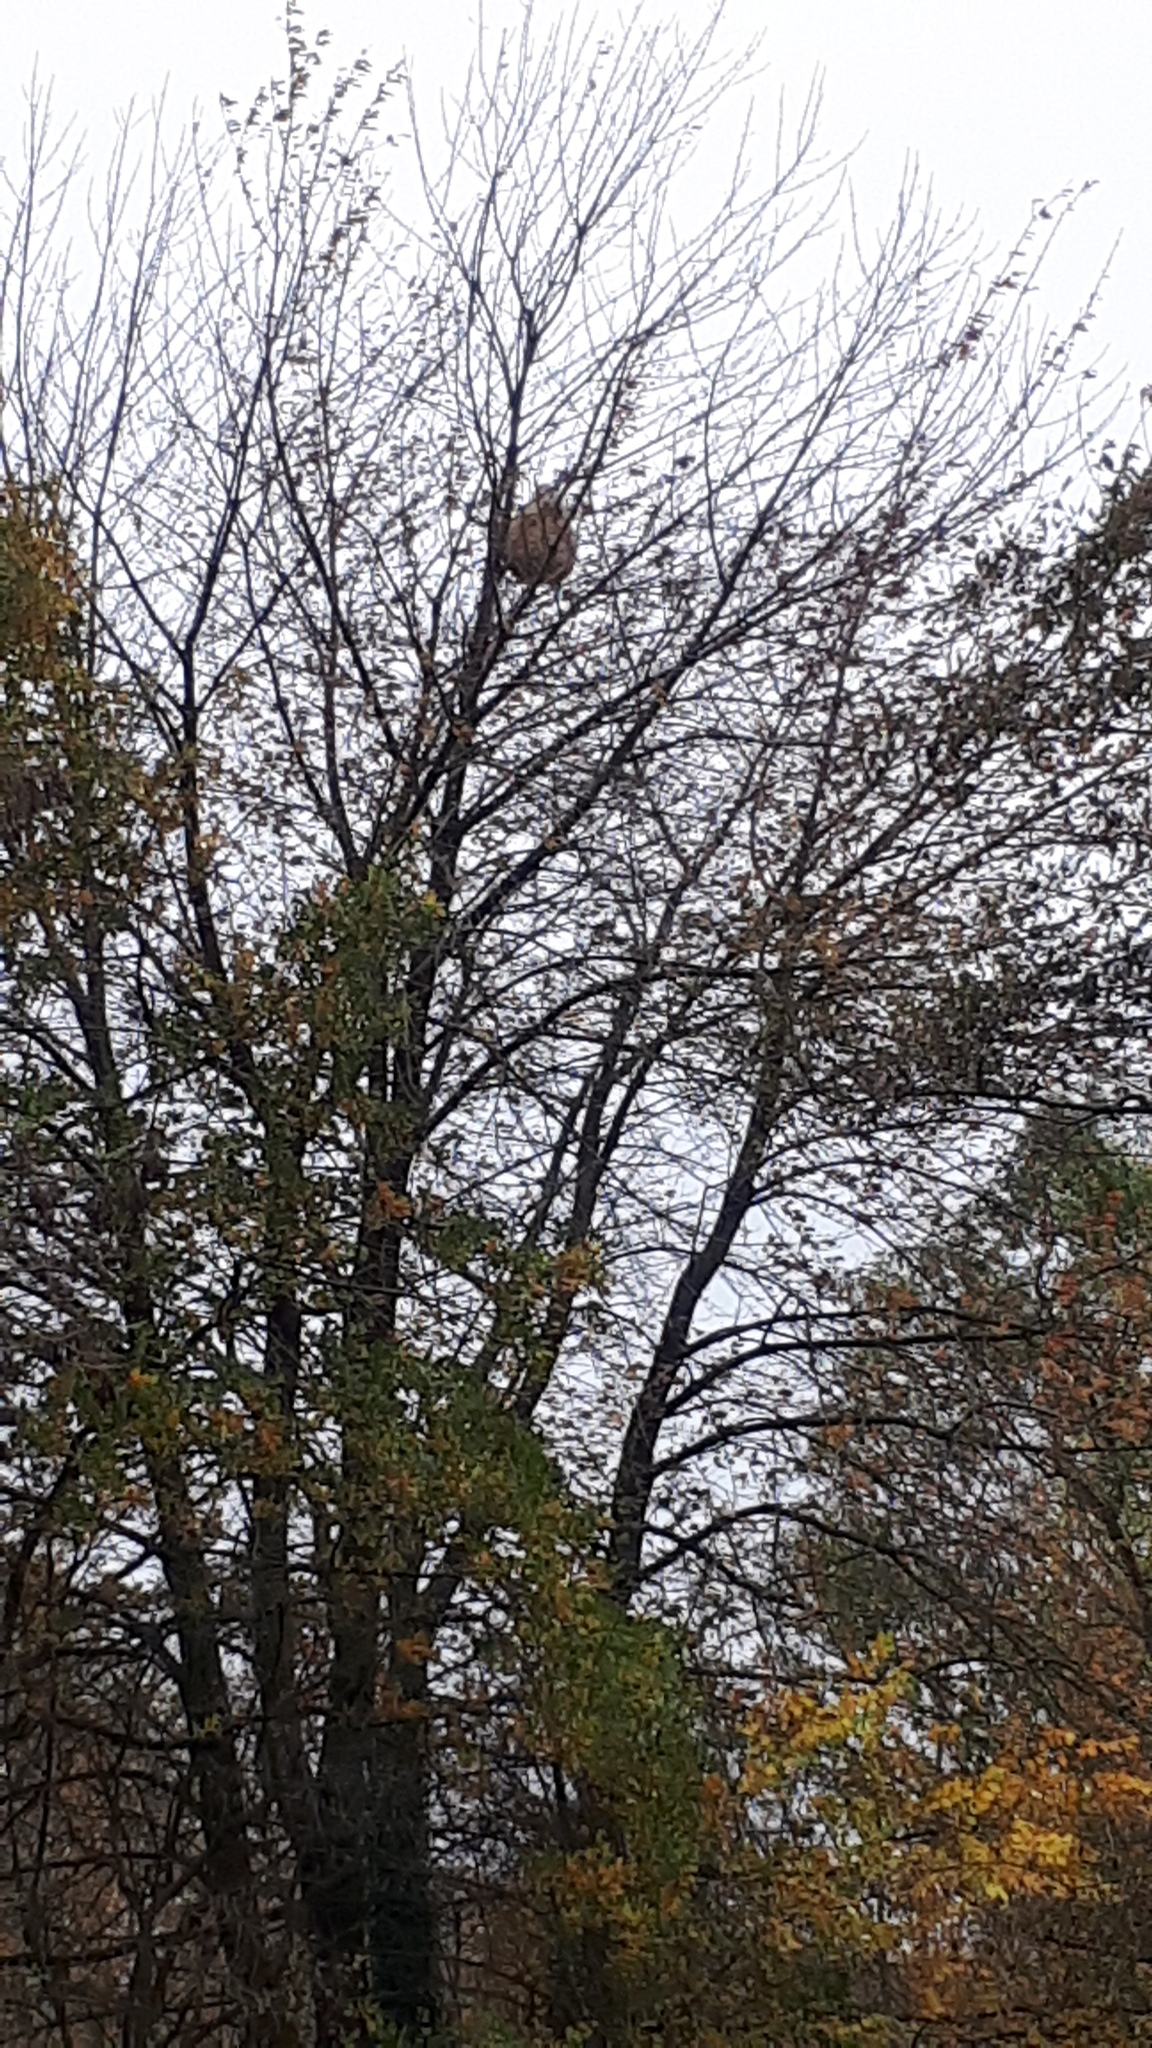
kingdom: Animalia
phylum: Arthropoda
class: Insecta
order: Hymenoptera
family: Vespidae
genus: Vespa
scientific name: Vespa velutina
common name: Asian hornet
